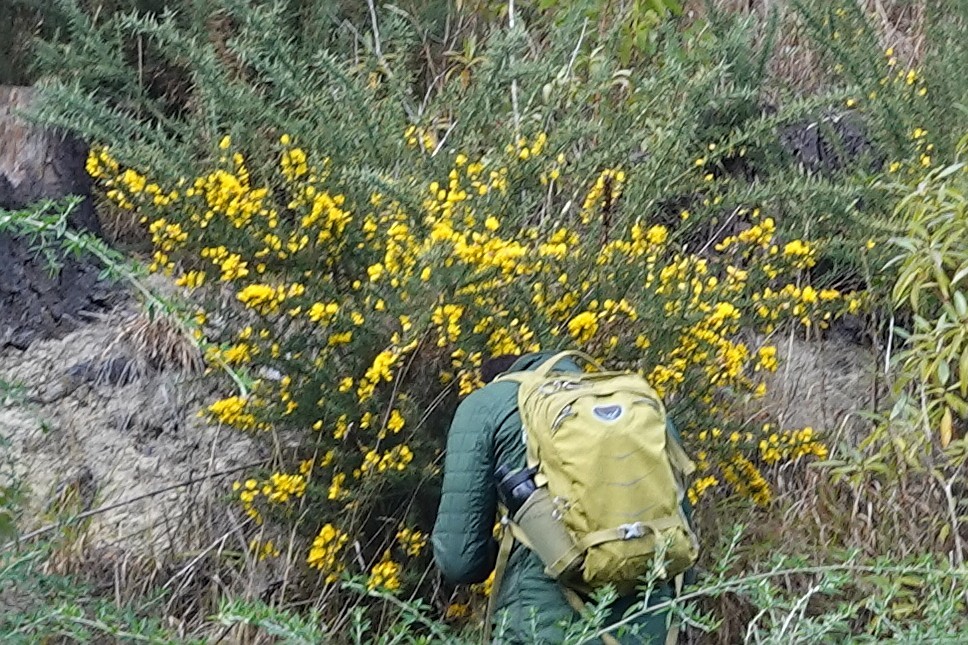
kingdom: Plantae
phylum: Tracheophyta
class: Magnoliopsida
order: Fabales
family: Fabaceae
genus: Ulex
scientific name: Ulex europaeus
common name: Common gorse
